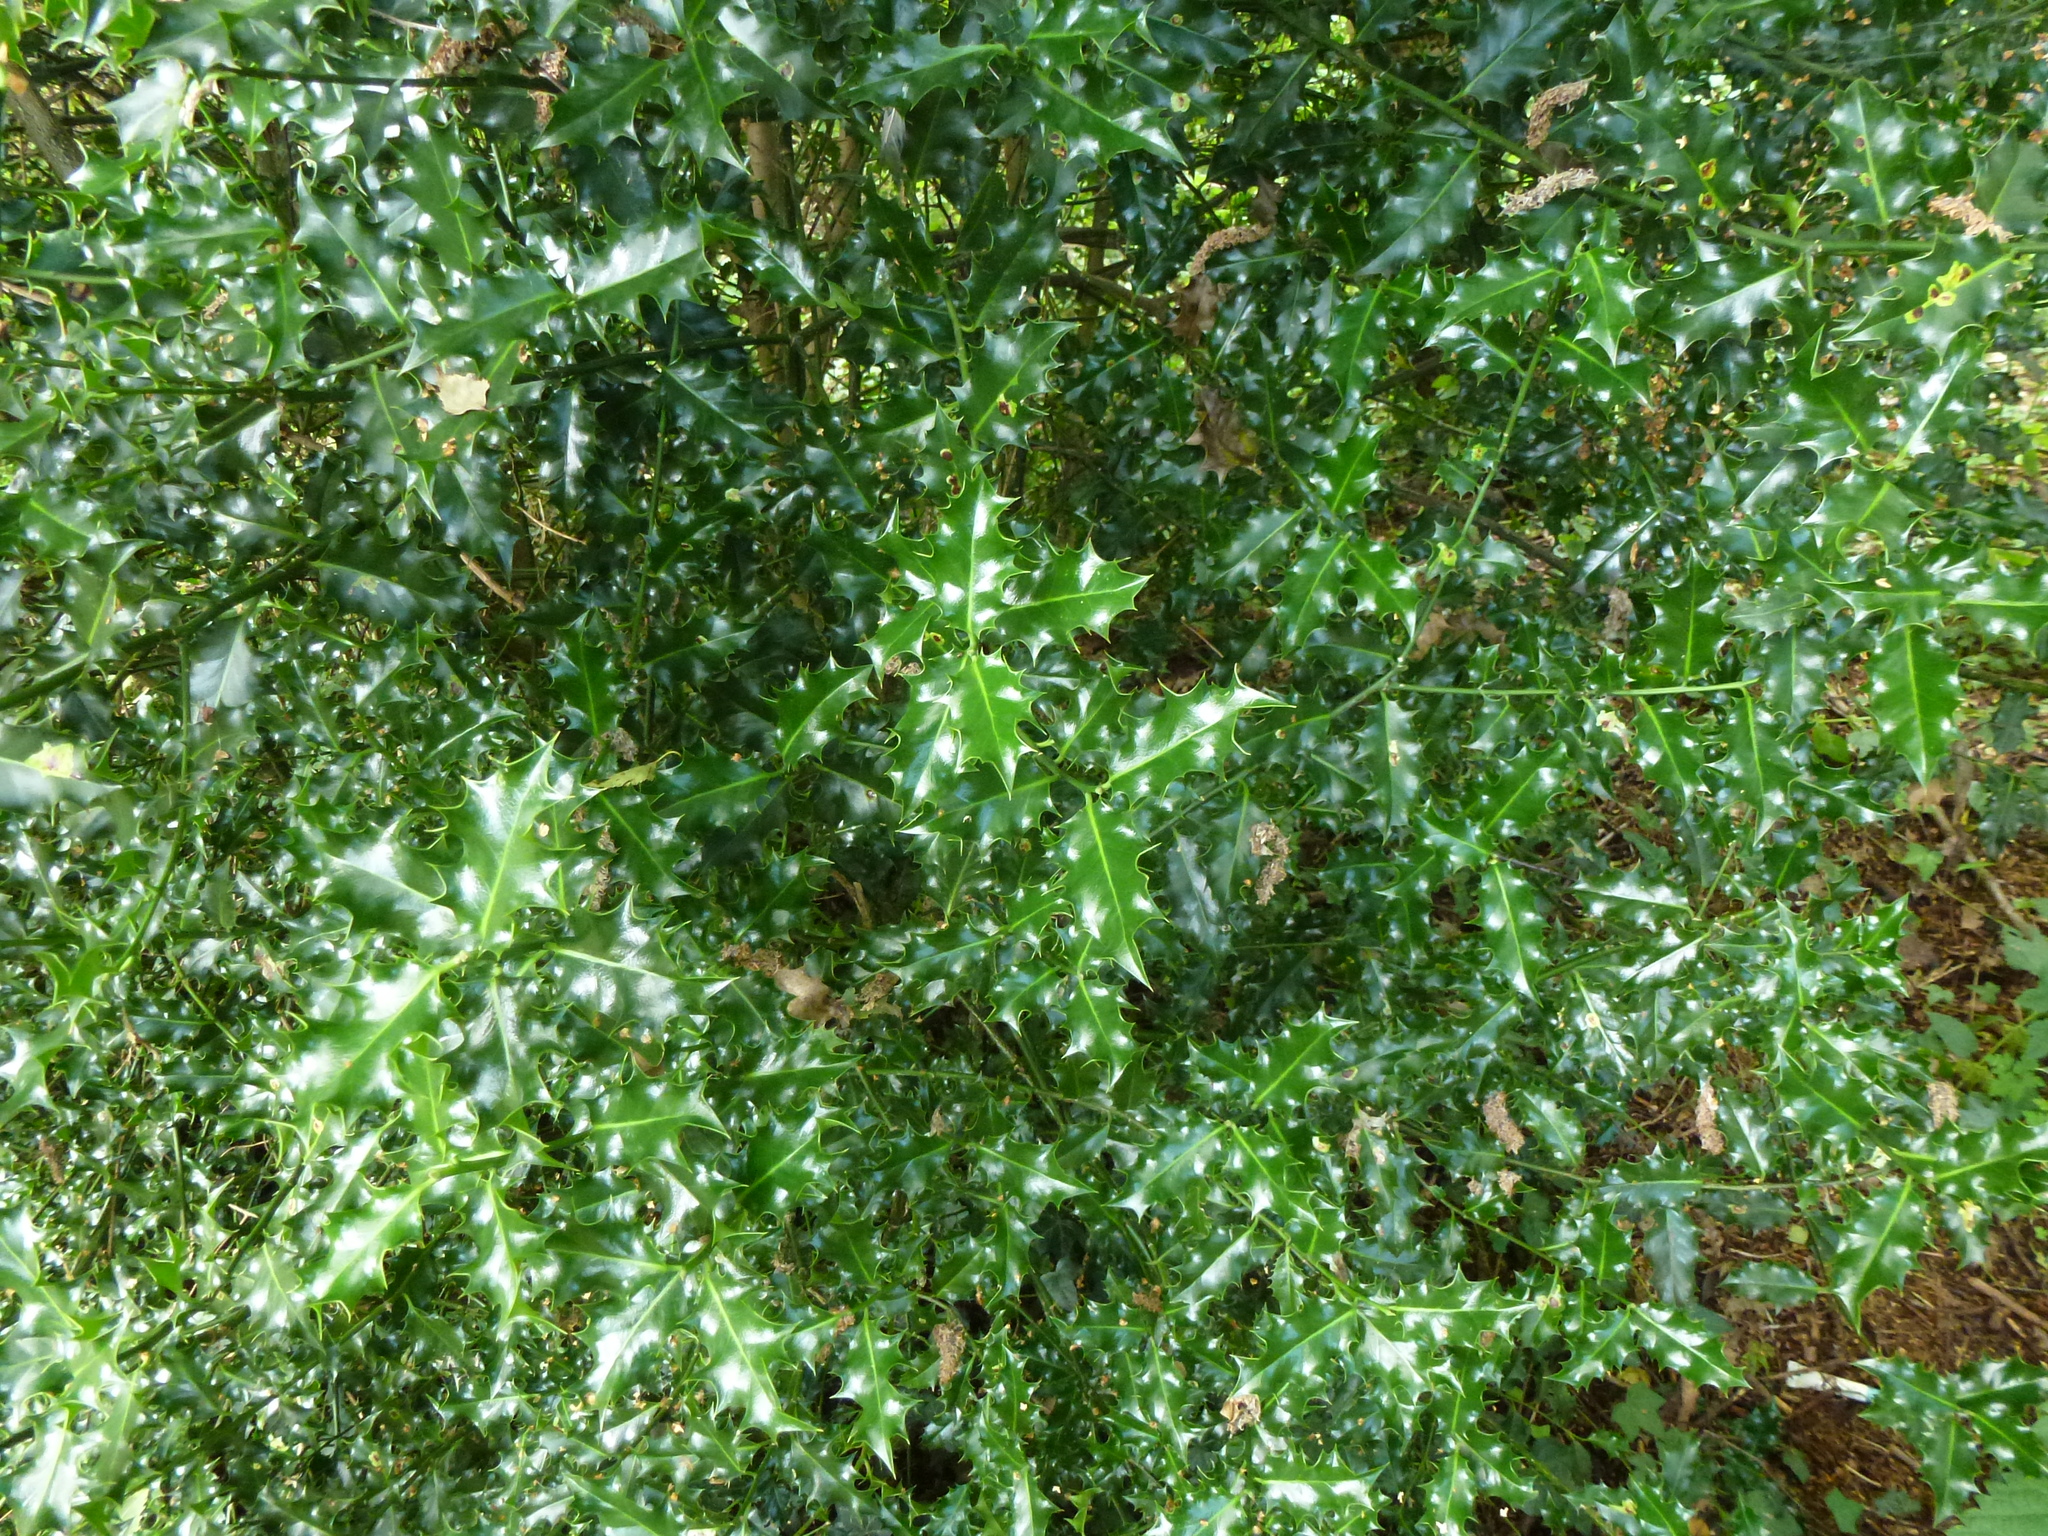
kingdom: Plantae
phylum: Tracheophyta
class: Magnoliopsida
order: Aquifoliales
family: Aquifoliaceae
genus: Ilex
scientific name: Ilex aquifolium
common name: English holly
